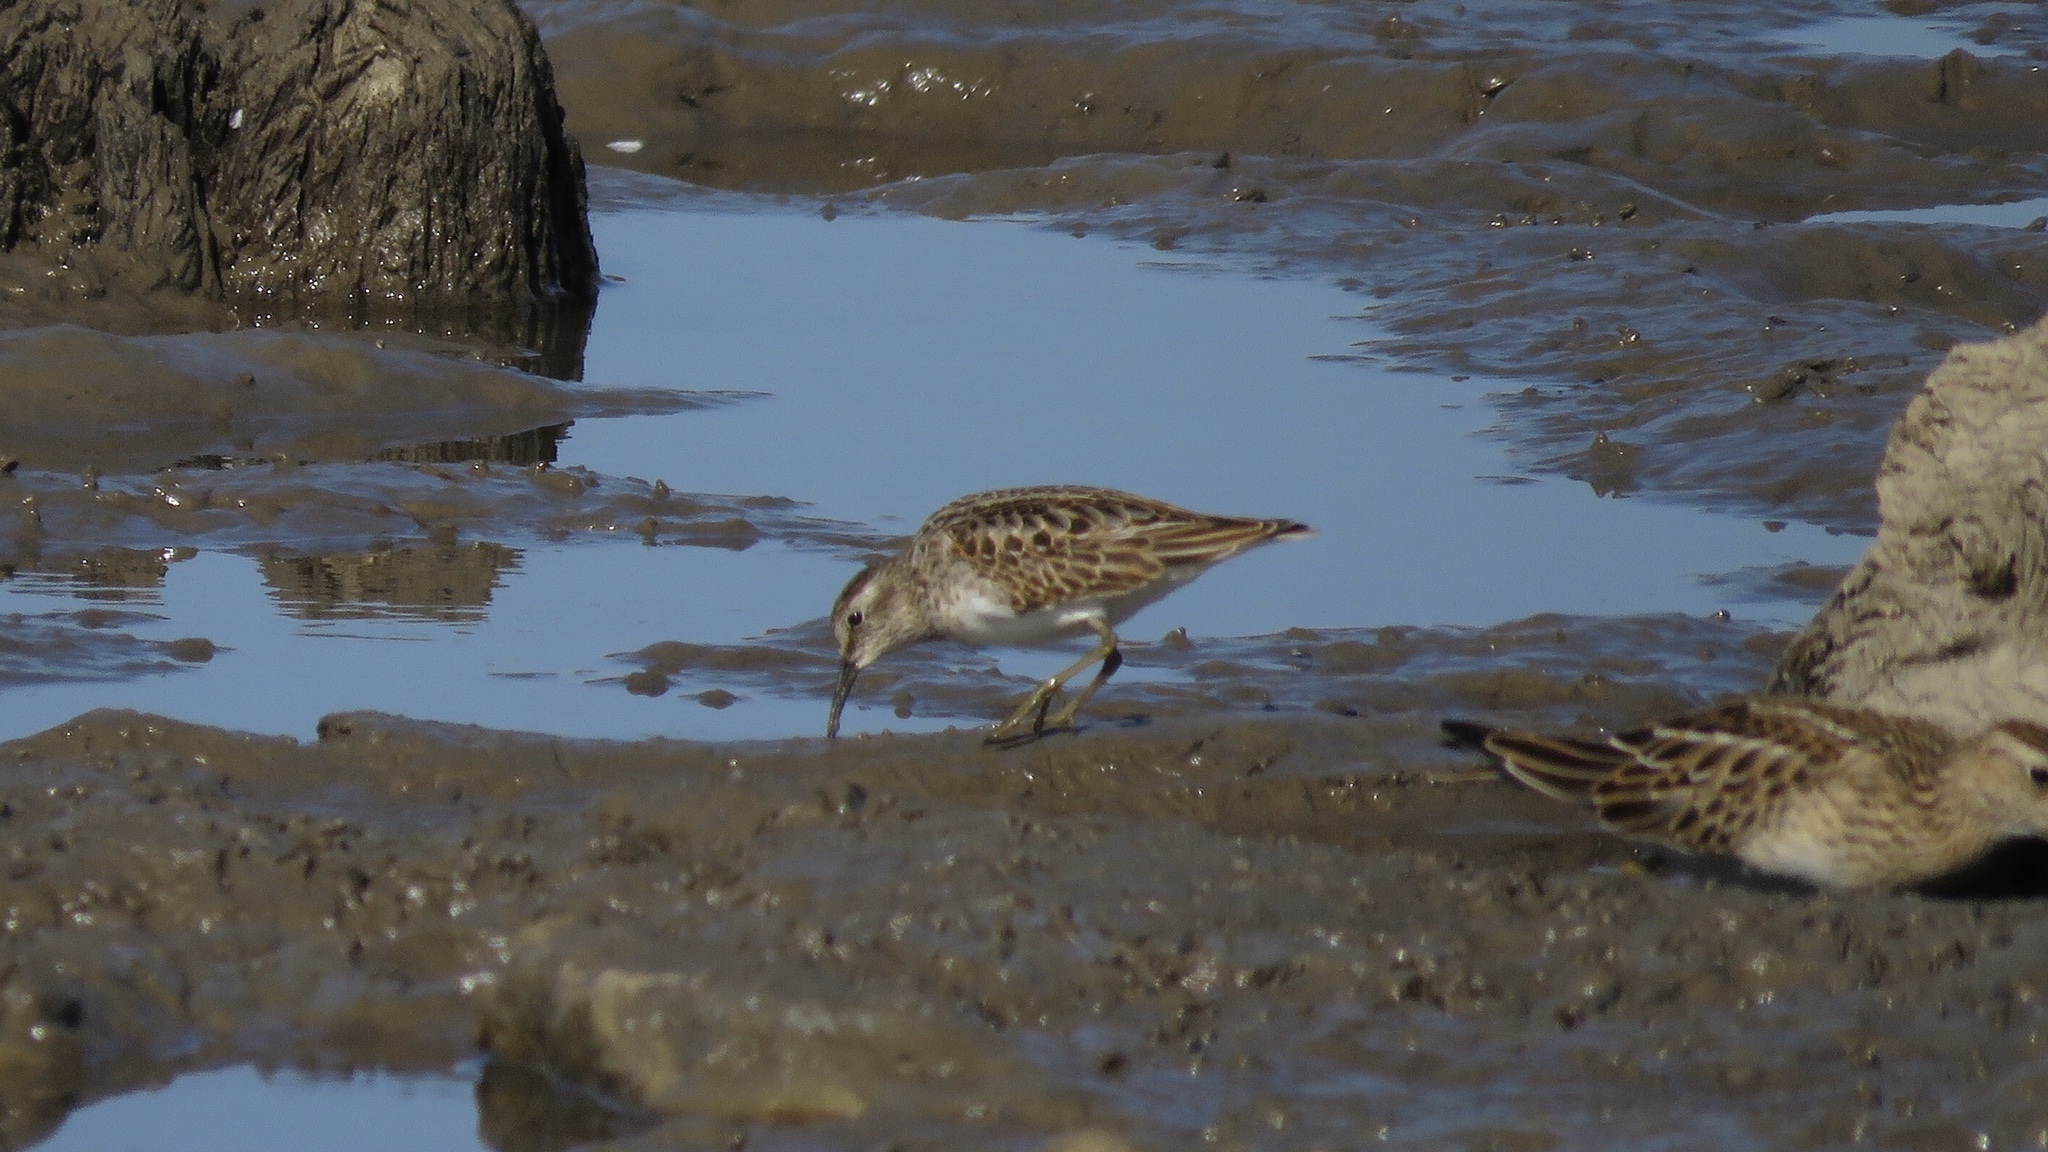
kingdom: Animalia
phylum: Chordata
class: Aves
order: Charadriiformes
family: Scolopacidae
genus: Calidris
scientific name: Calidris minutilla
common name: Least sandpiper
